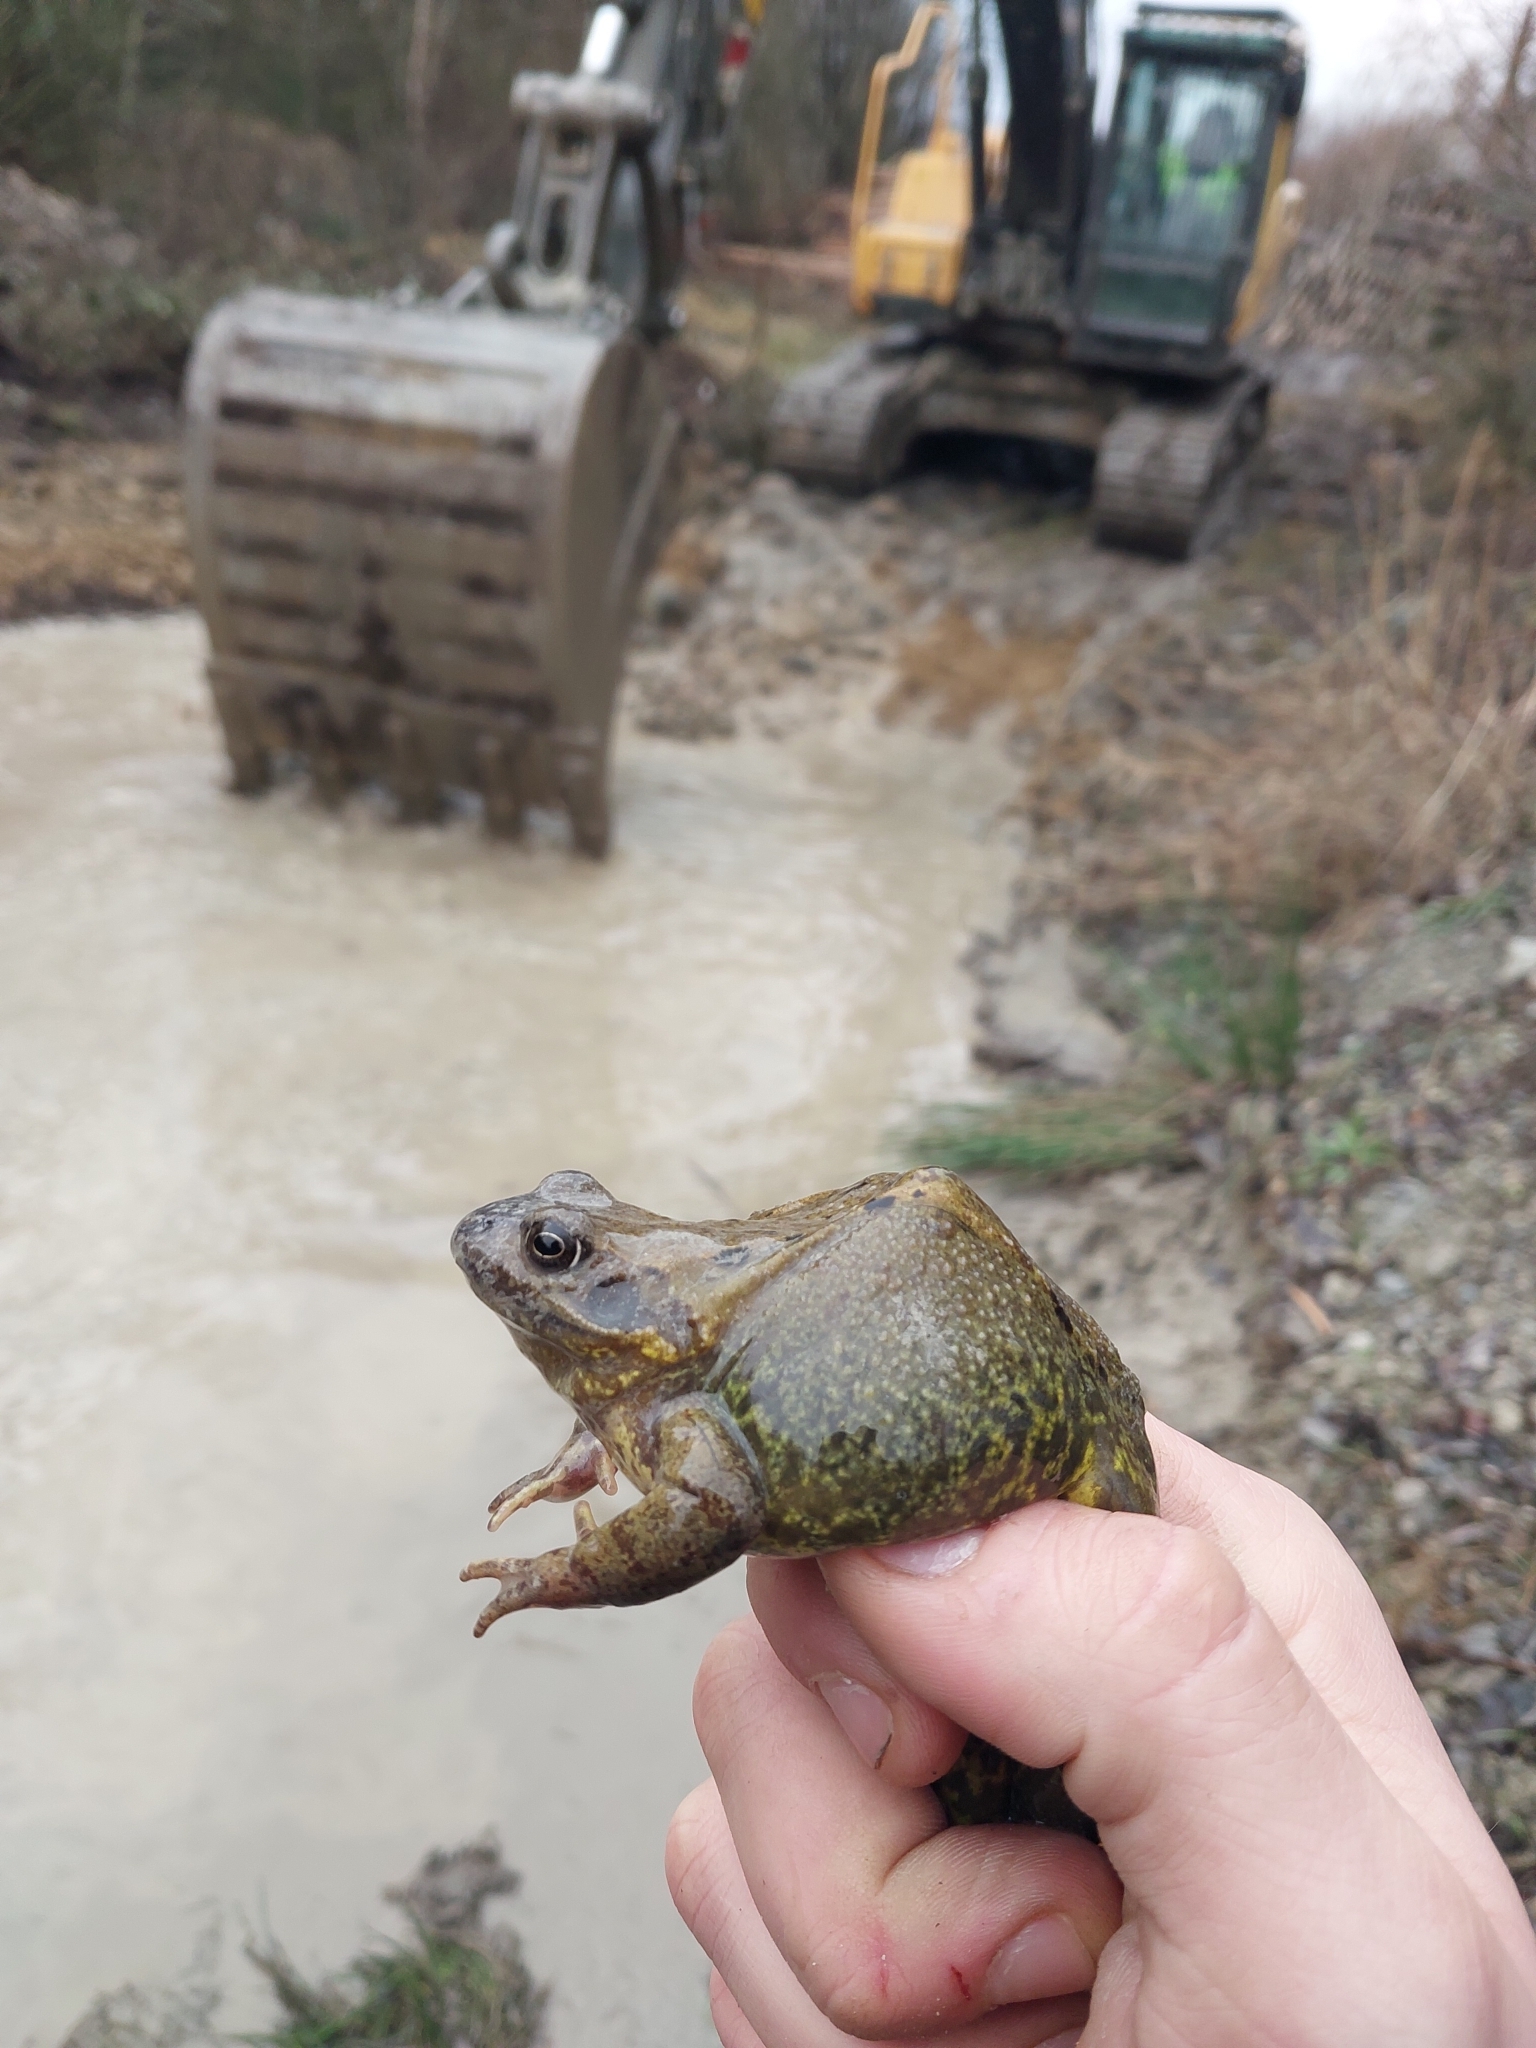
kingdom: Animalia
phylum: Chordata
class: Amphibia
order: Anura
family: Ranidae
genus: Rana
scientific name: Rana temporaria
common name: Common frog
